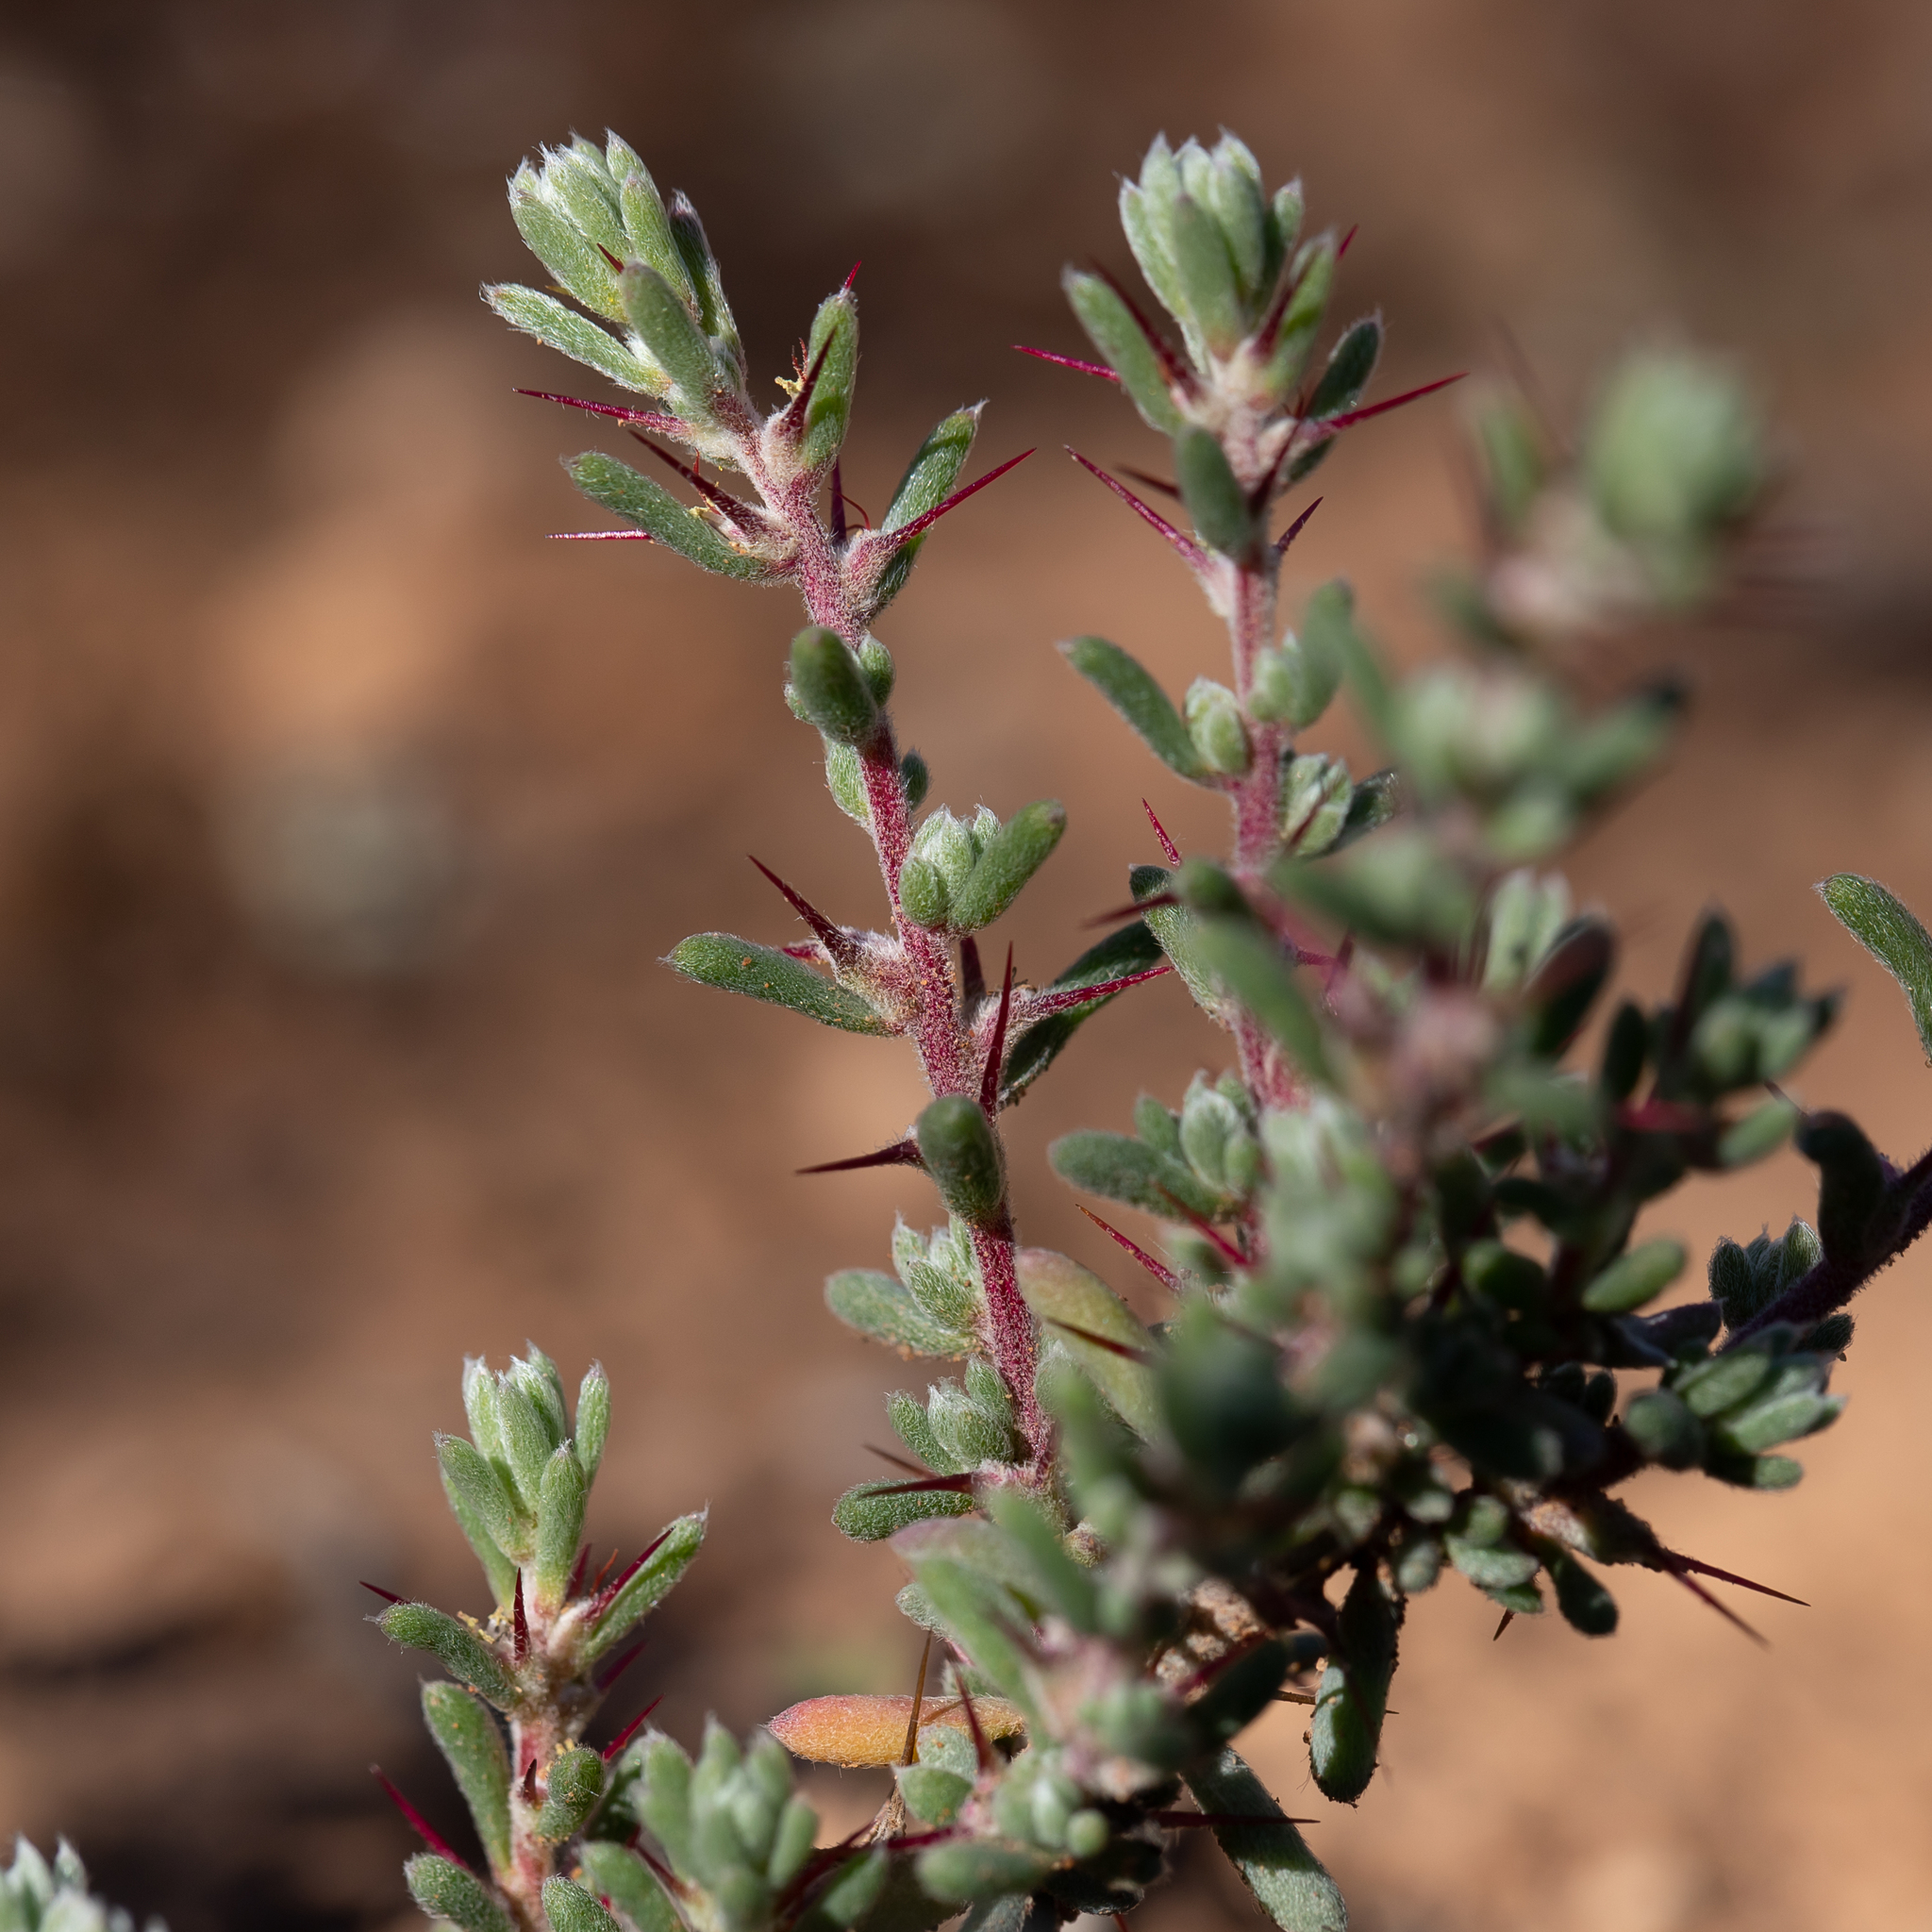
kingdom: Plantae
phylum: Tracheophyta
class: Magnoliopsida
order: Caryophyllales
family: Amaranthaceae
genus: Sclerolaena
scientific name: Sclerolaena obliquicuspis
